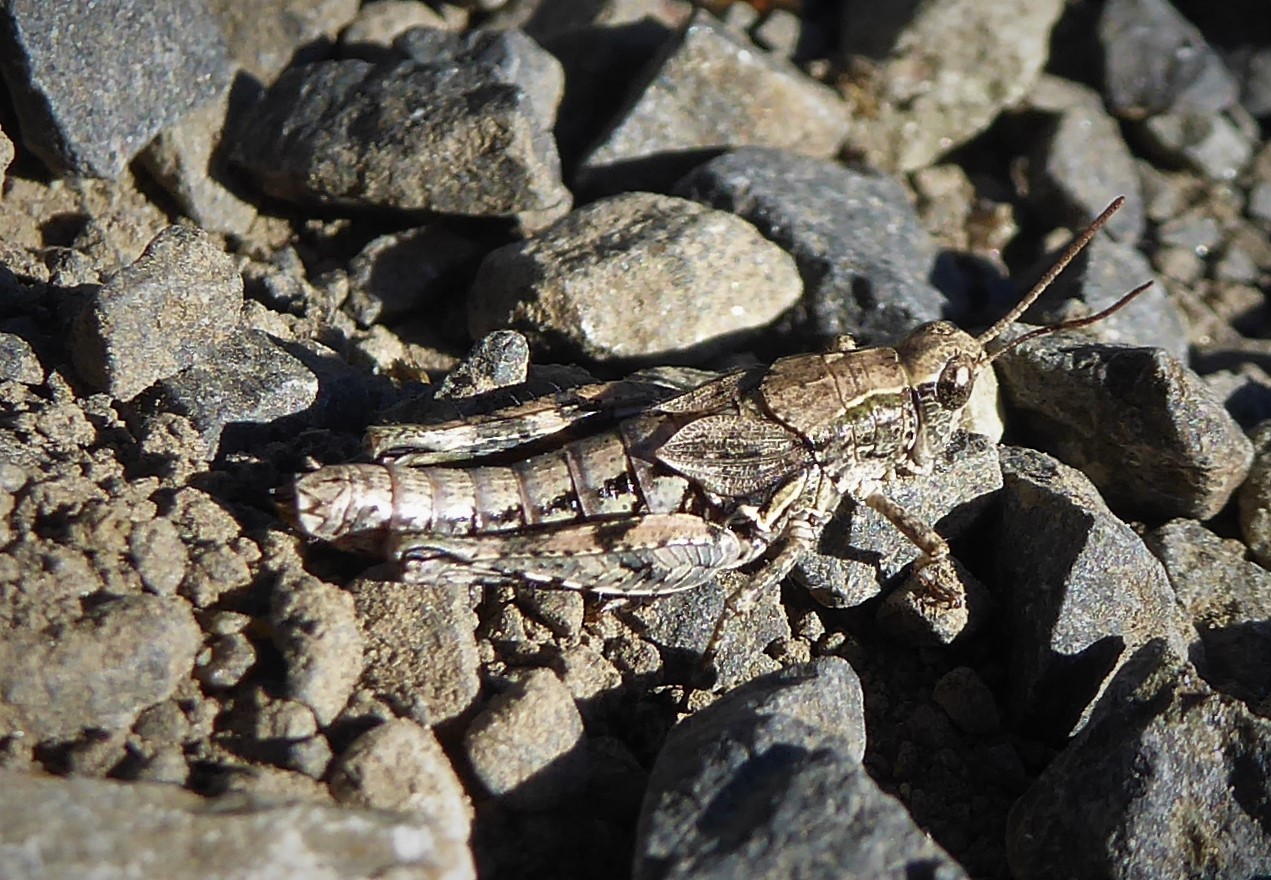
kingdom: Animalia
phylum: Arthropoda
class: Insecta
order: Orthoptera
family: Acrididae
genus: Phaulacridium
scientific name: Phaulacridium marginale
